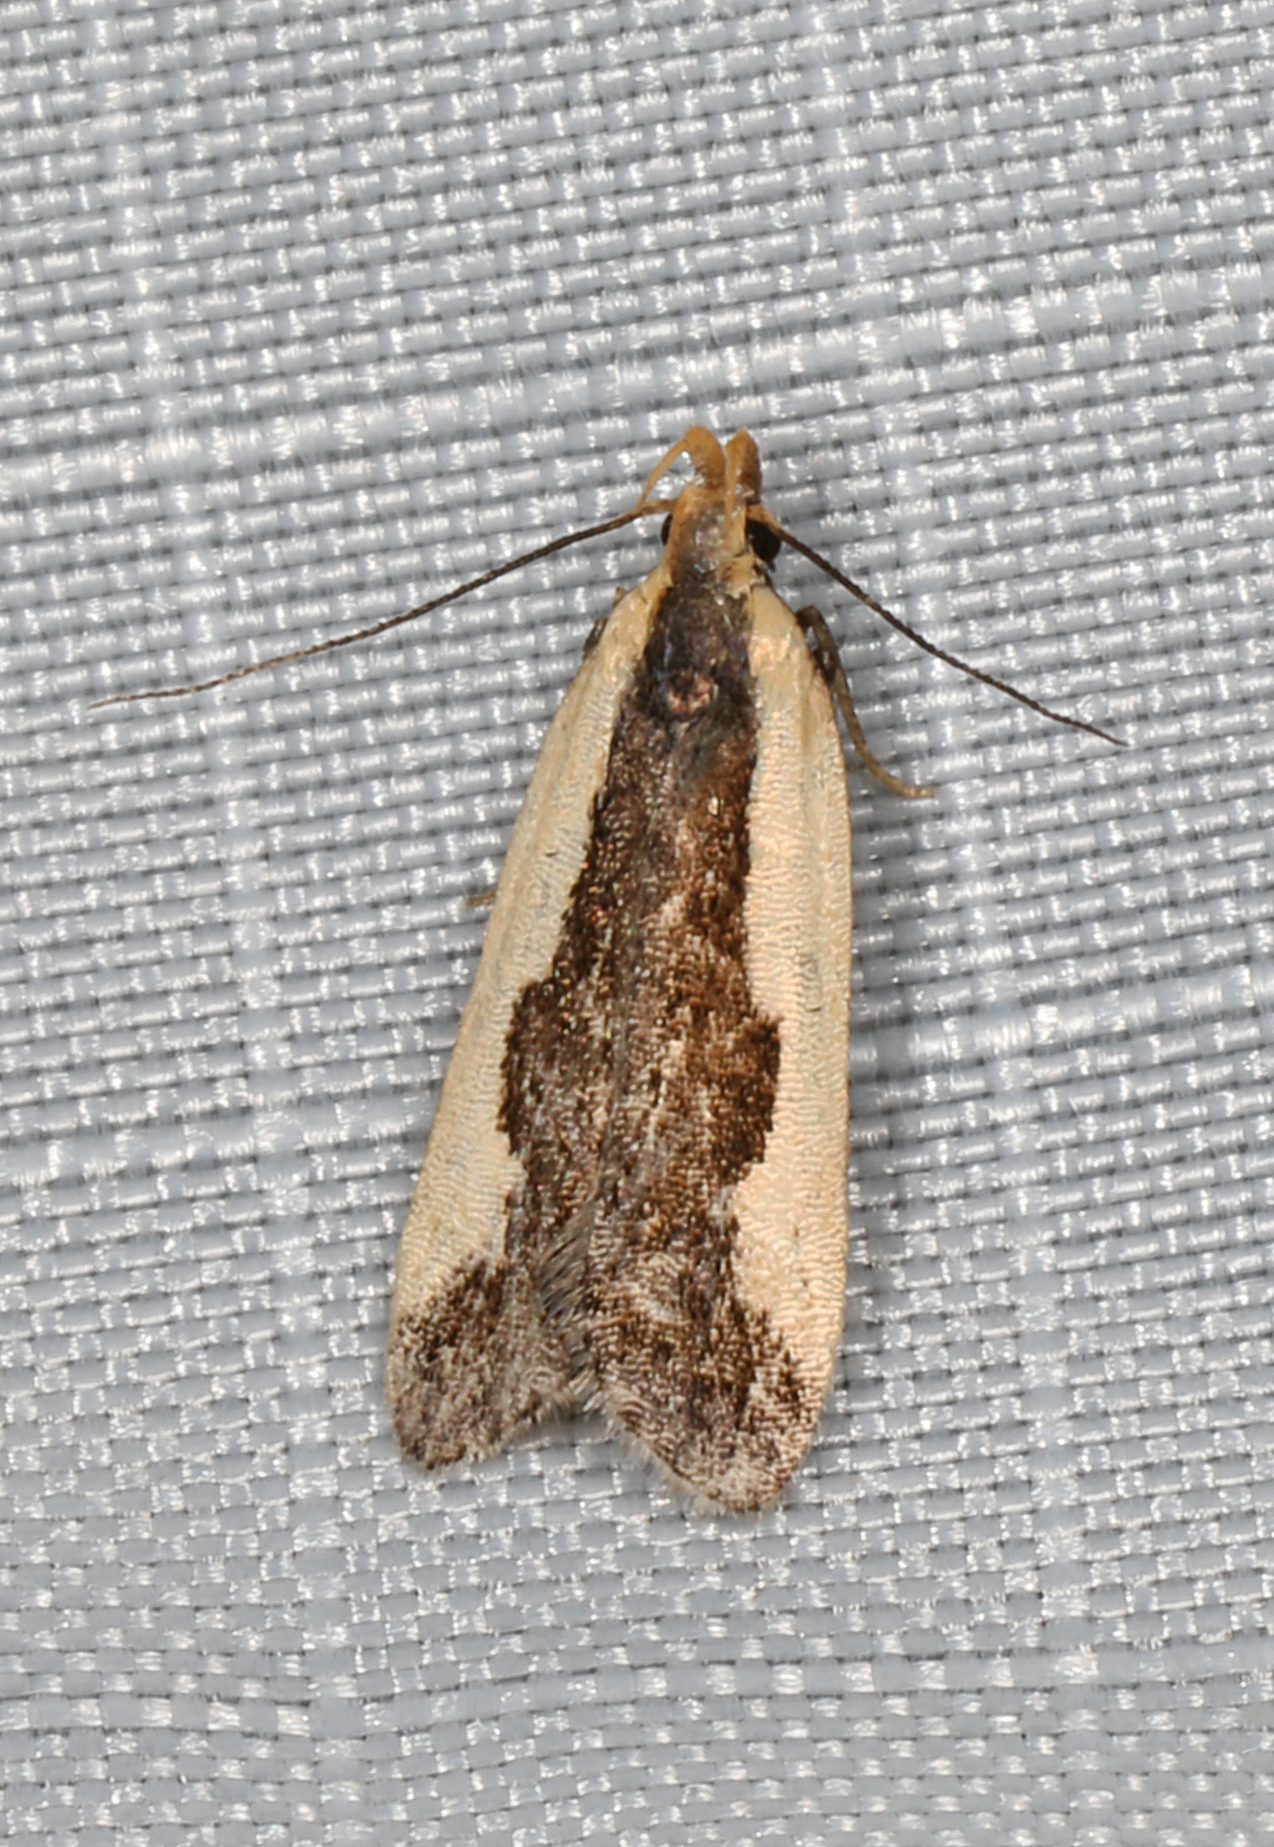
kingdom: Animalia
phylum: Arthropoda
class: Insecta
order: Lepidoptera
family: Gelechiidae
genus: Dichomeris
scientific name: Dichomeris inserrata
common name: Indented dichomeris moth
